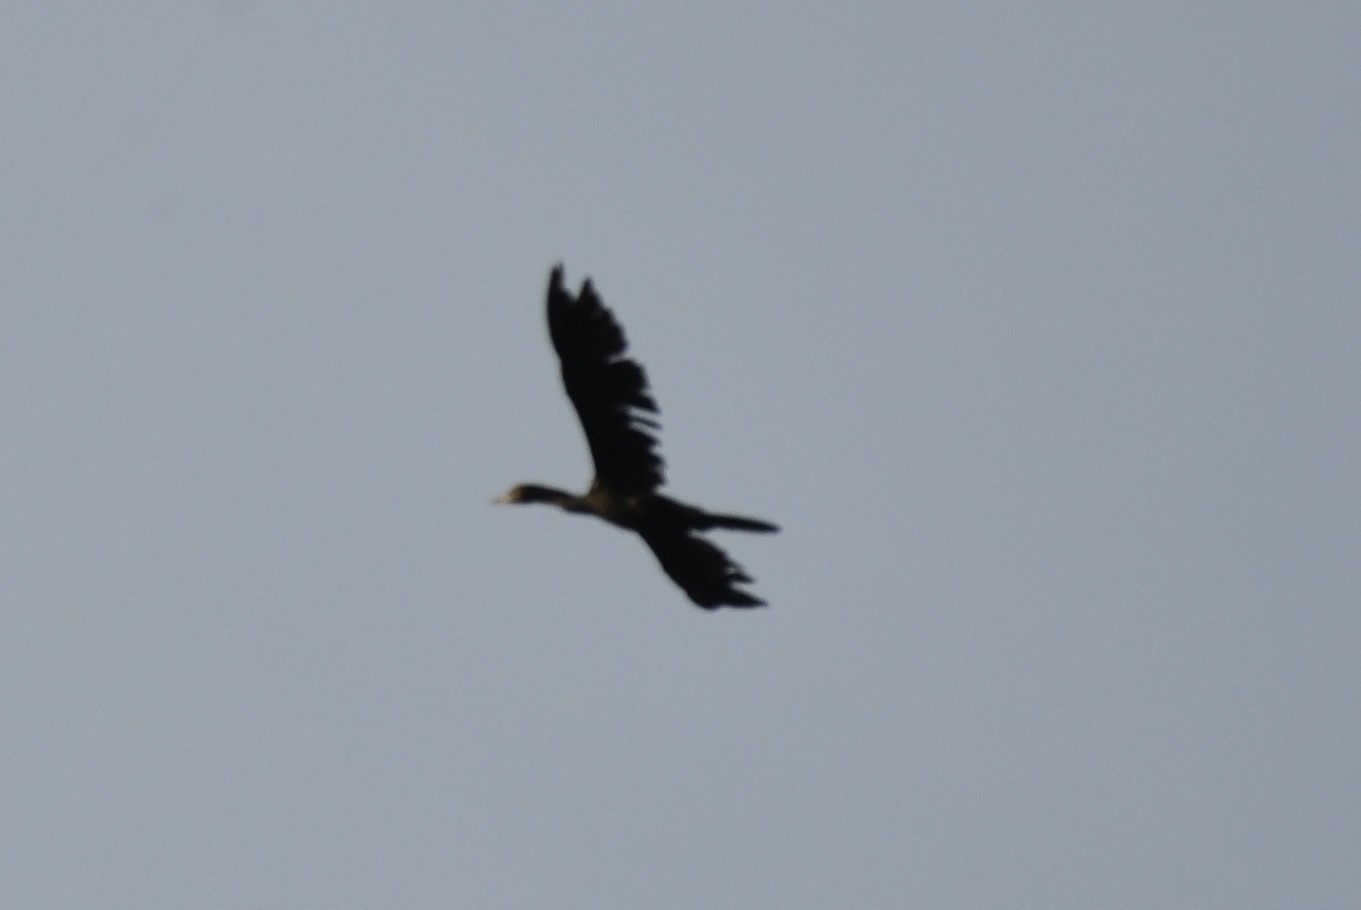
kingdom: Animalia
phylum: Chordata
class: Aves
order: Suliformes
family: Phalacrocoracidae
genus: Microcarbo
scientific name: Microcarbo niger
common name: Little cormorant
